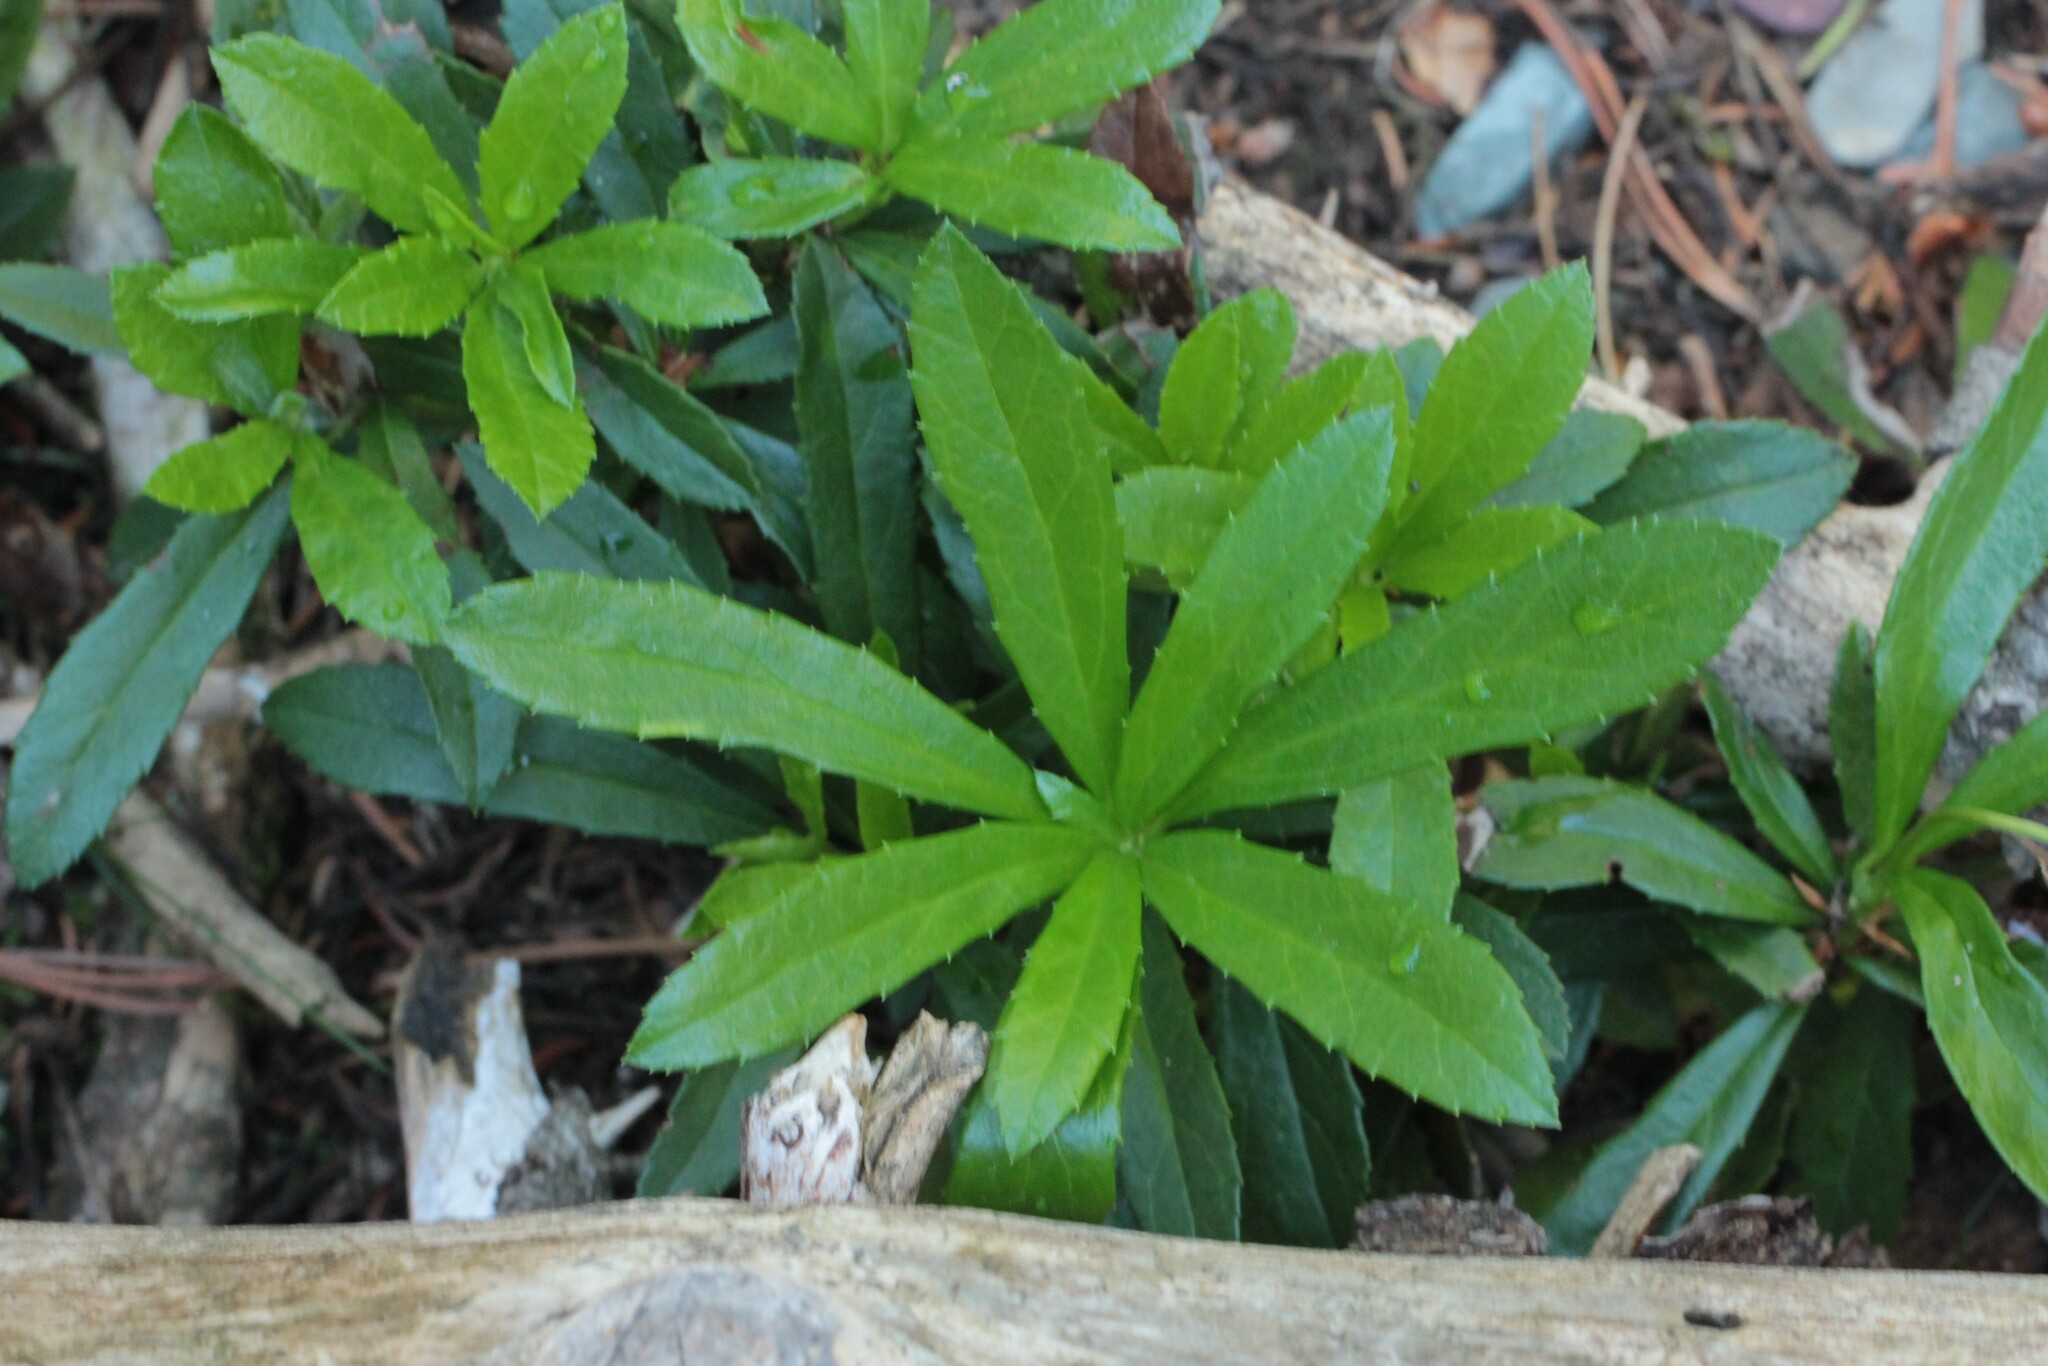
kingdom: Plantae
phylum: Tracheophyta
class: Magnoliopsida
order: Ericales
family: Ericaceae
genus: Chimaphila
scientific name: Chimaphila umbellata
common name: Pipsissewa
